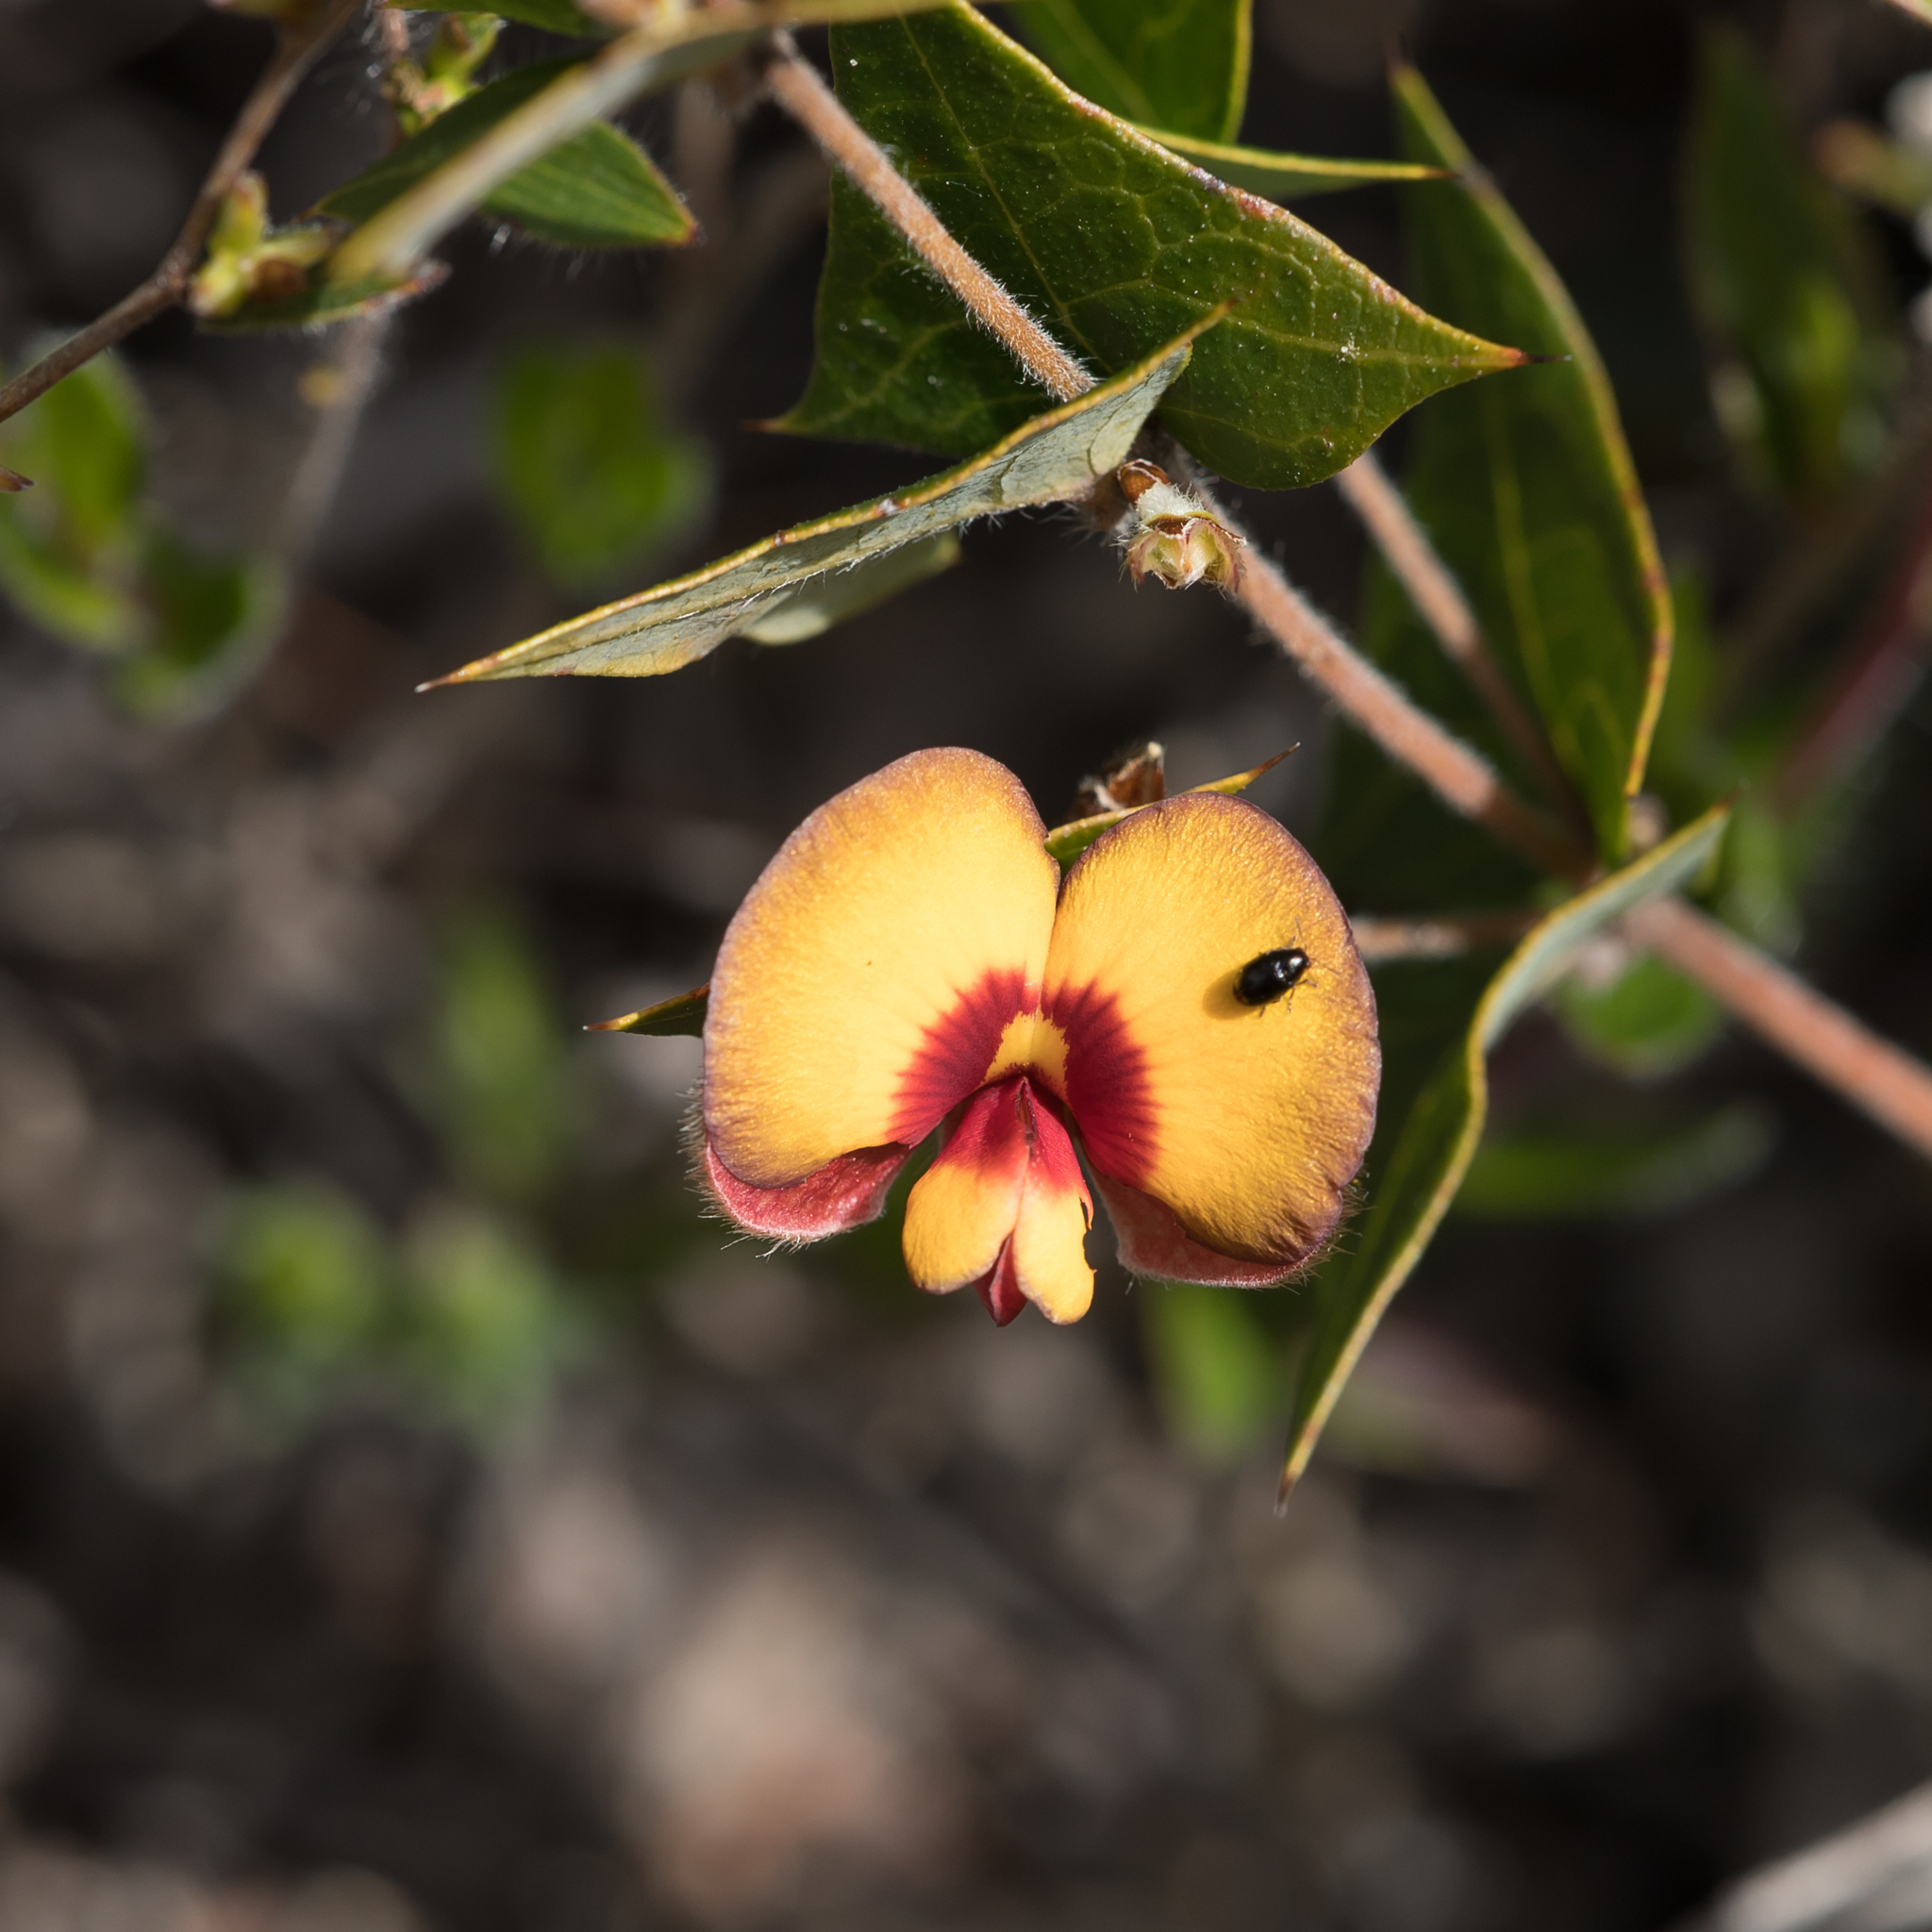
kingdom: Plantae
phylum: Tracheophyta
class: Magnoliopsida
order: Fabales
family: Fabaceae
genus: Platylobium
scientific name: Platylobium obtusangulum
